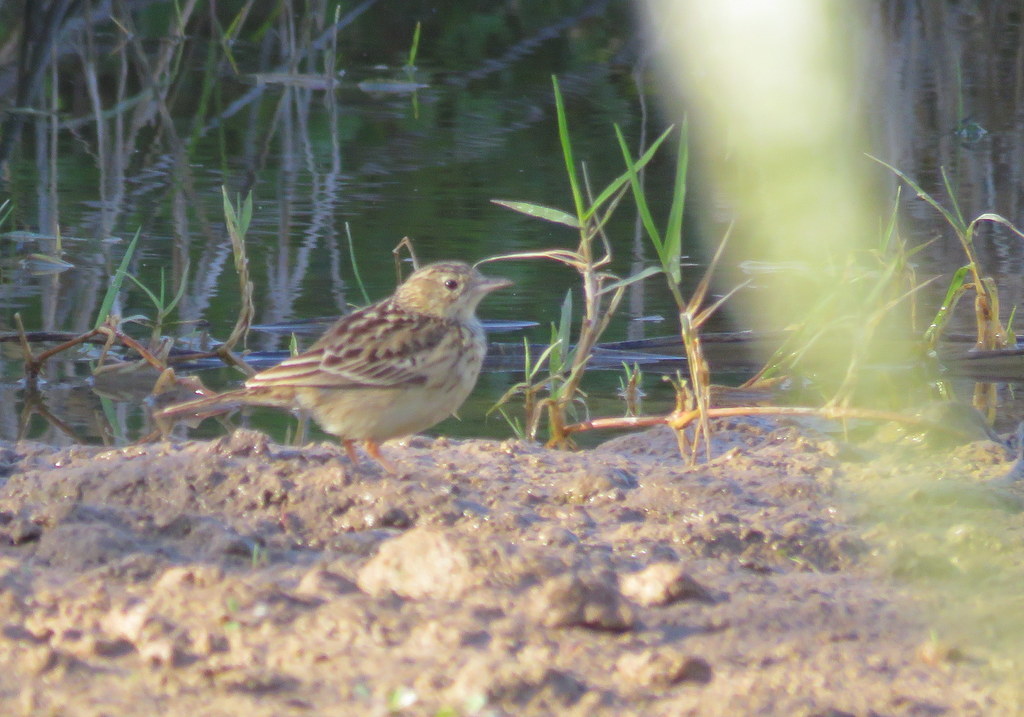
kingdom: Animalia
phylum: Chordata
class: Aves
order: Passeriformes
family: Motacillidae
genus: Anthus
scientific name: Anthus chii
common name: Yellowish pipit
